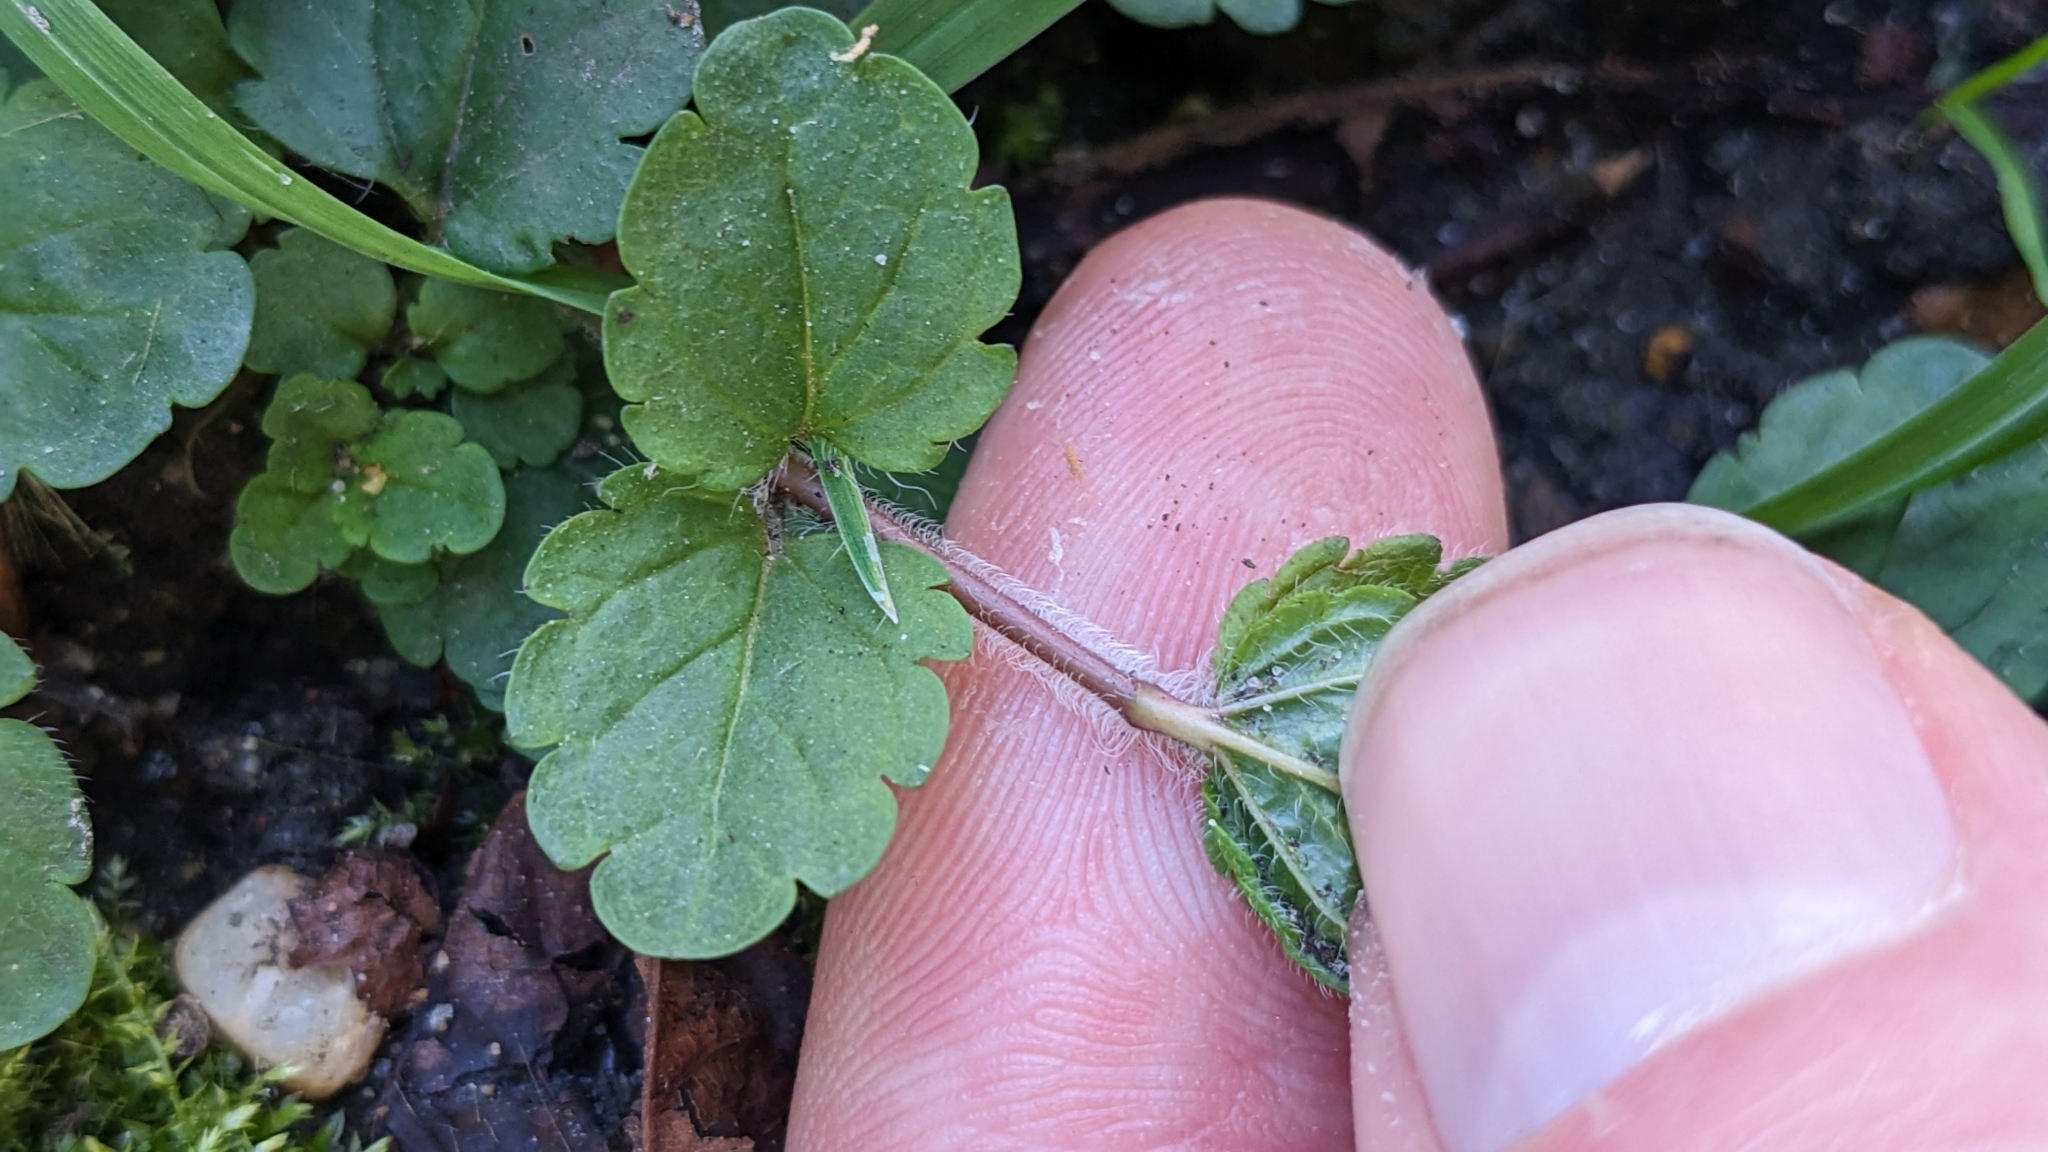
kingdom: Plantae
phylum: Tracheophyta
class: Magnoliopsida
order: Lamiales
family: Plantaginaceae
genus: Veronica
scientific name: Veronica chamaedrys
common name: Germander speedwell
